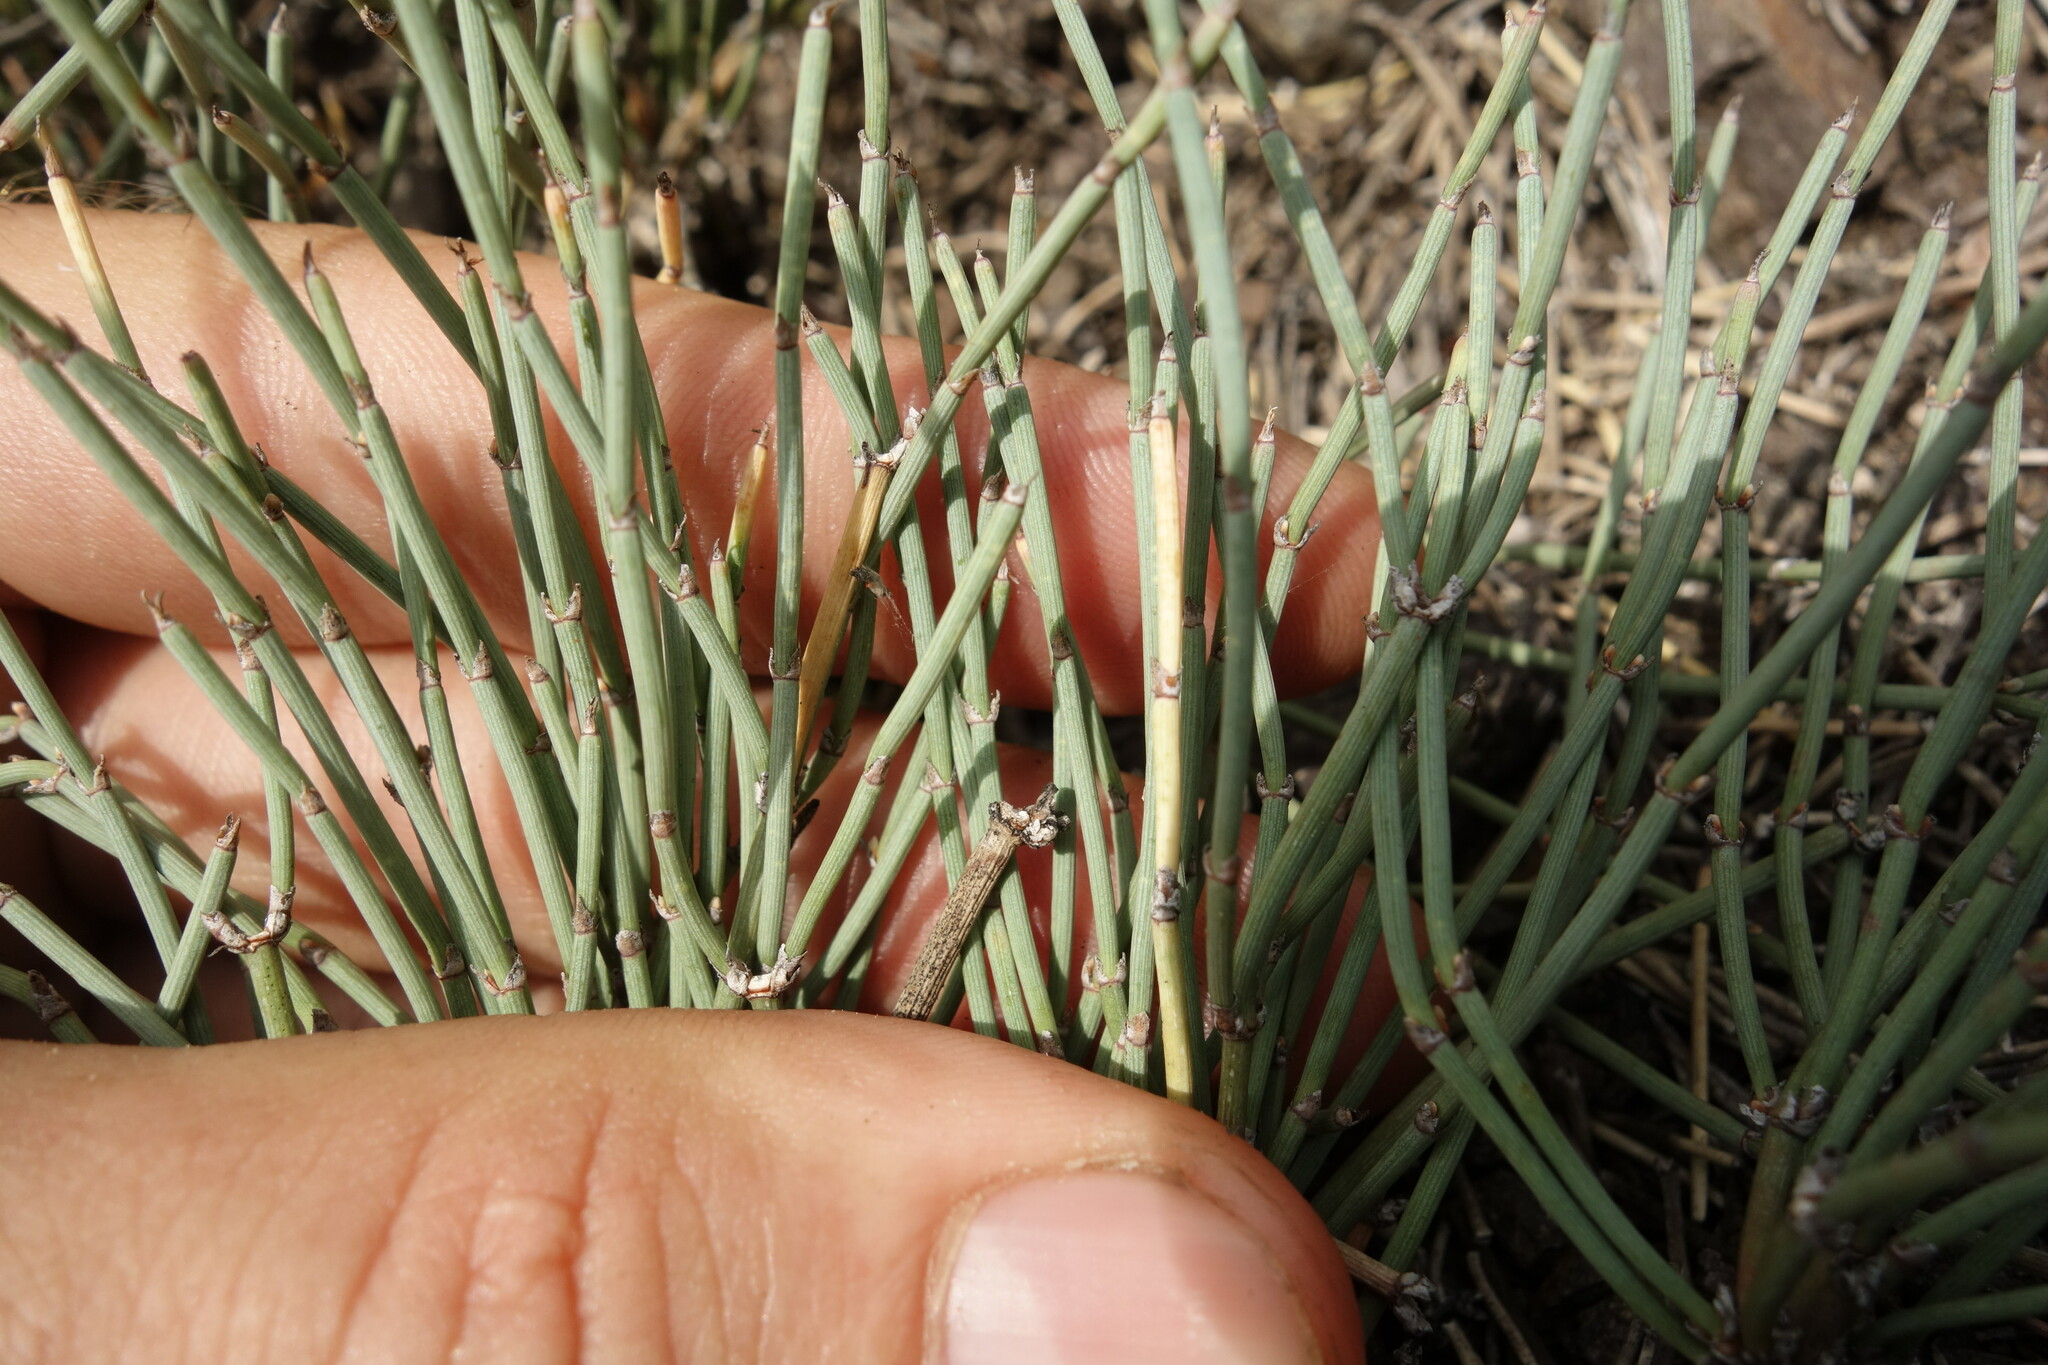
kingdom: Plantae
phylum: Tracheophyta
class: Gnetopsida
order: Ephedrales
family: Ephedraceae
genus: Ephedra
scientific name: Ephedra monosperma
